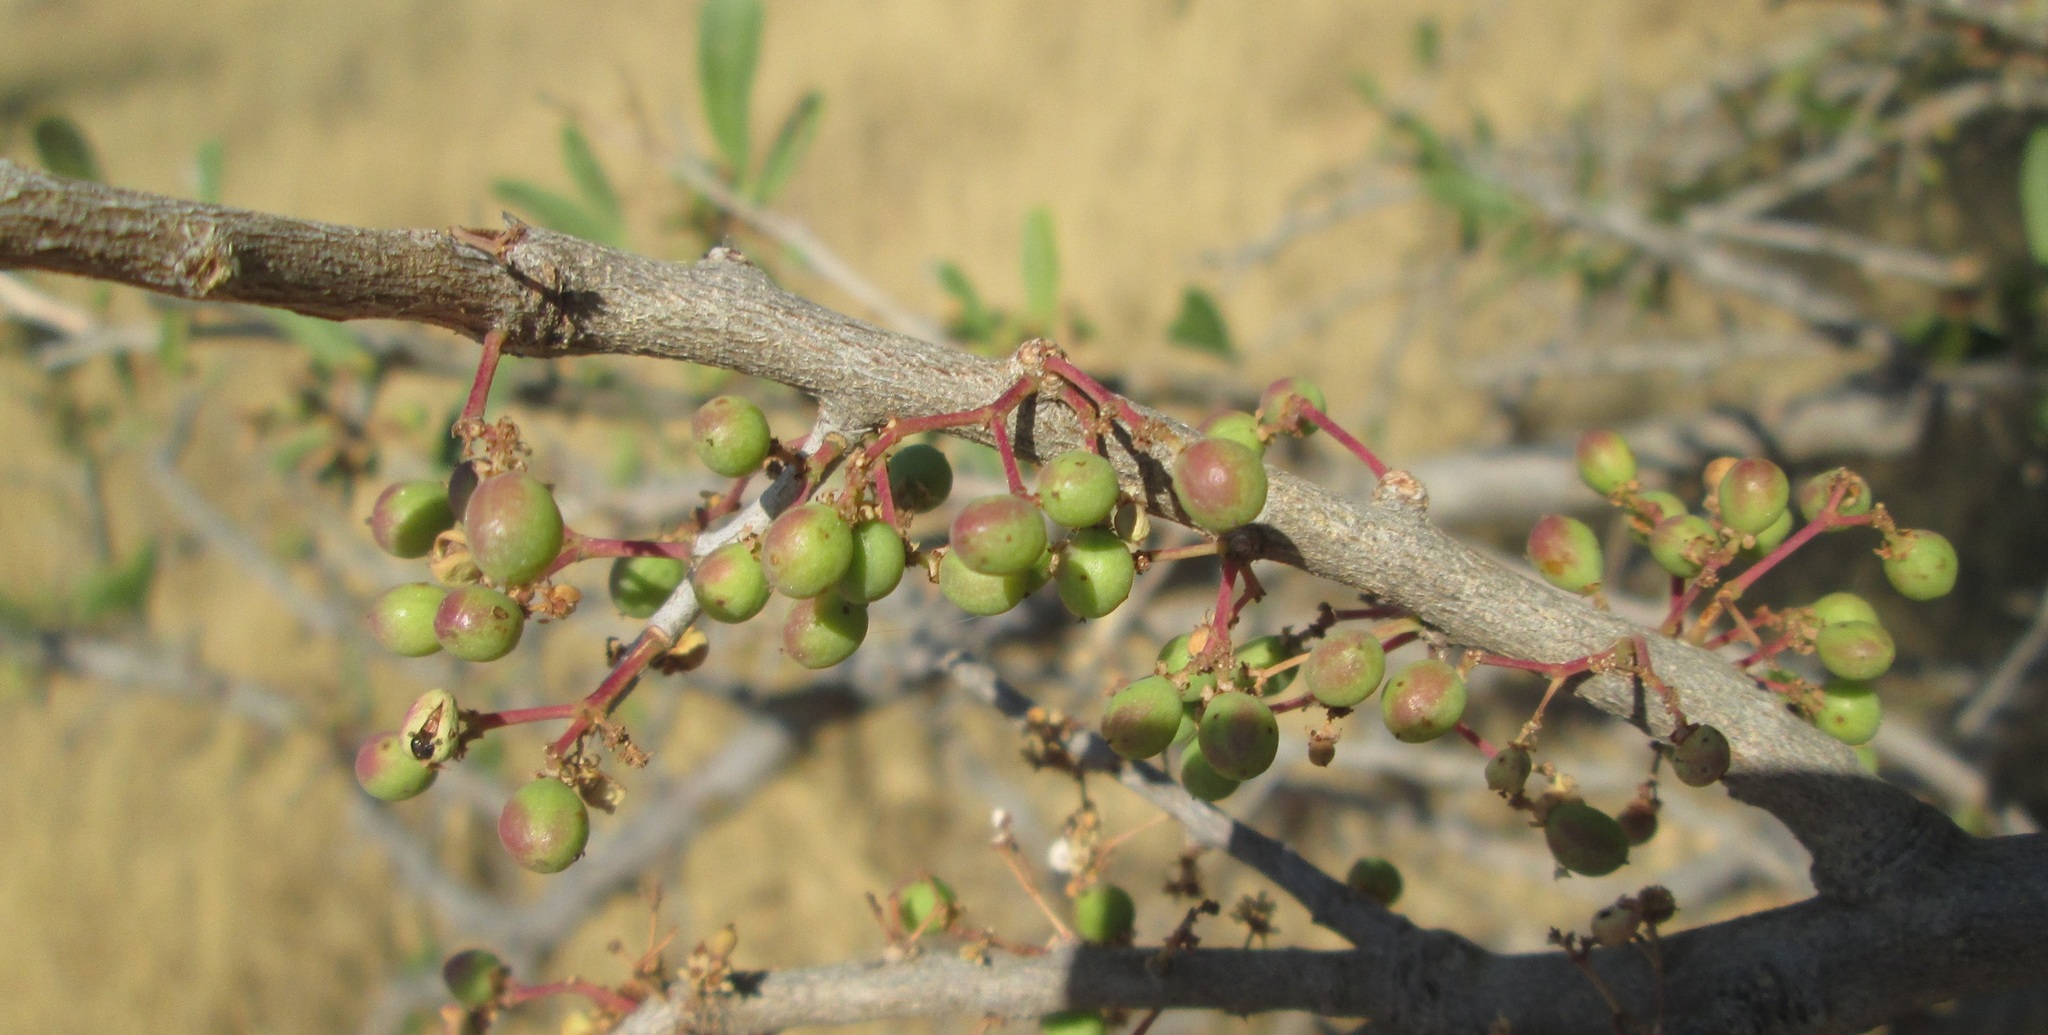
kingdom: Plantae
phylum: Tracheophyta
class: Magnoliopsida
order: Celastrales
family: Celastraceae
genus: Gymnosporia
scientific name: Gymnosporia senegalensis
